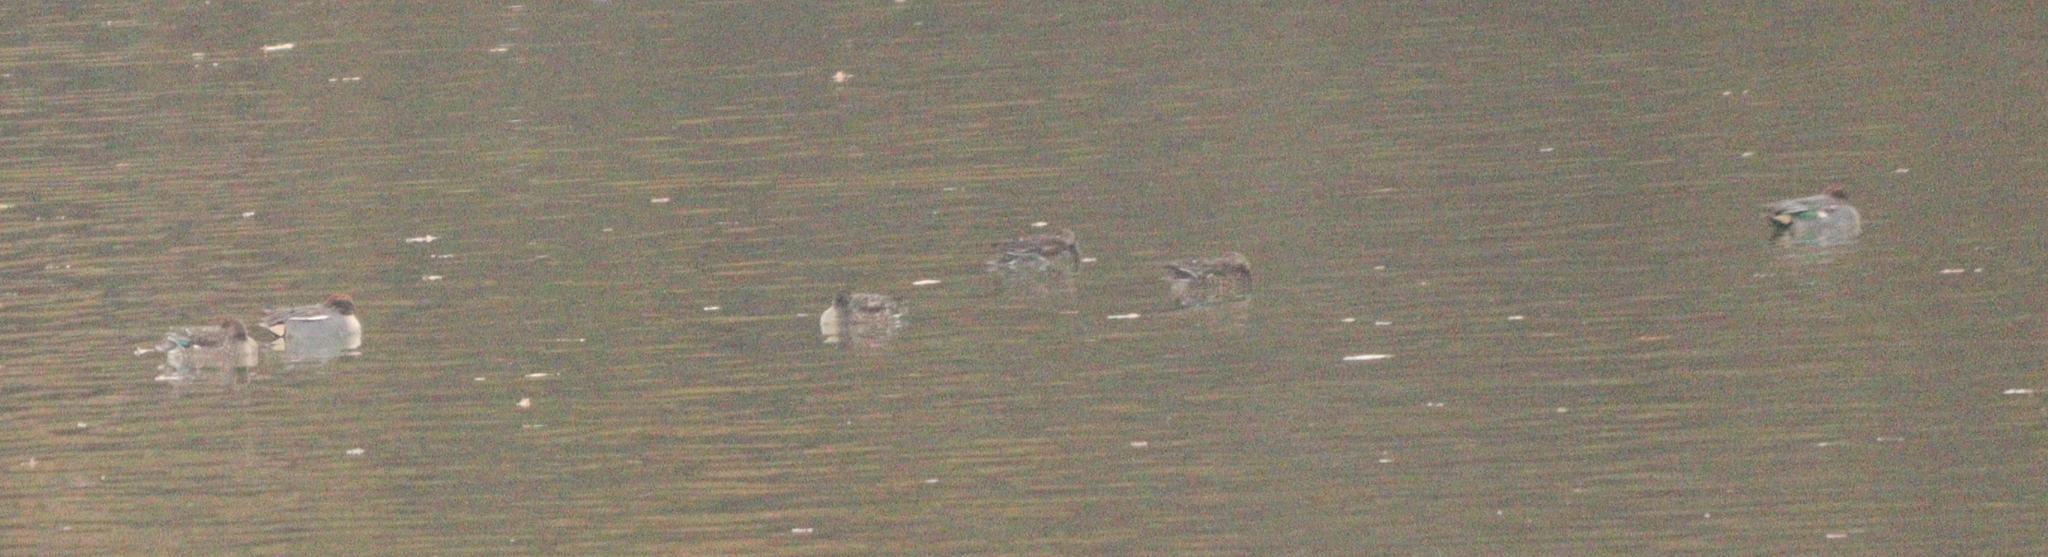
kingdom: Animalia
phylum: Chordata
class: Aves
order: Anseriformes
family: Anatidae
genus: Anas
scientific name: Anas crecca
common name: Eurasian teal
